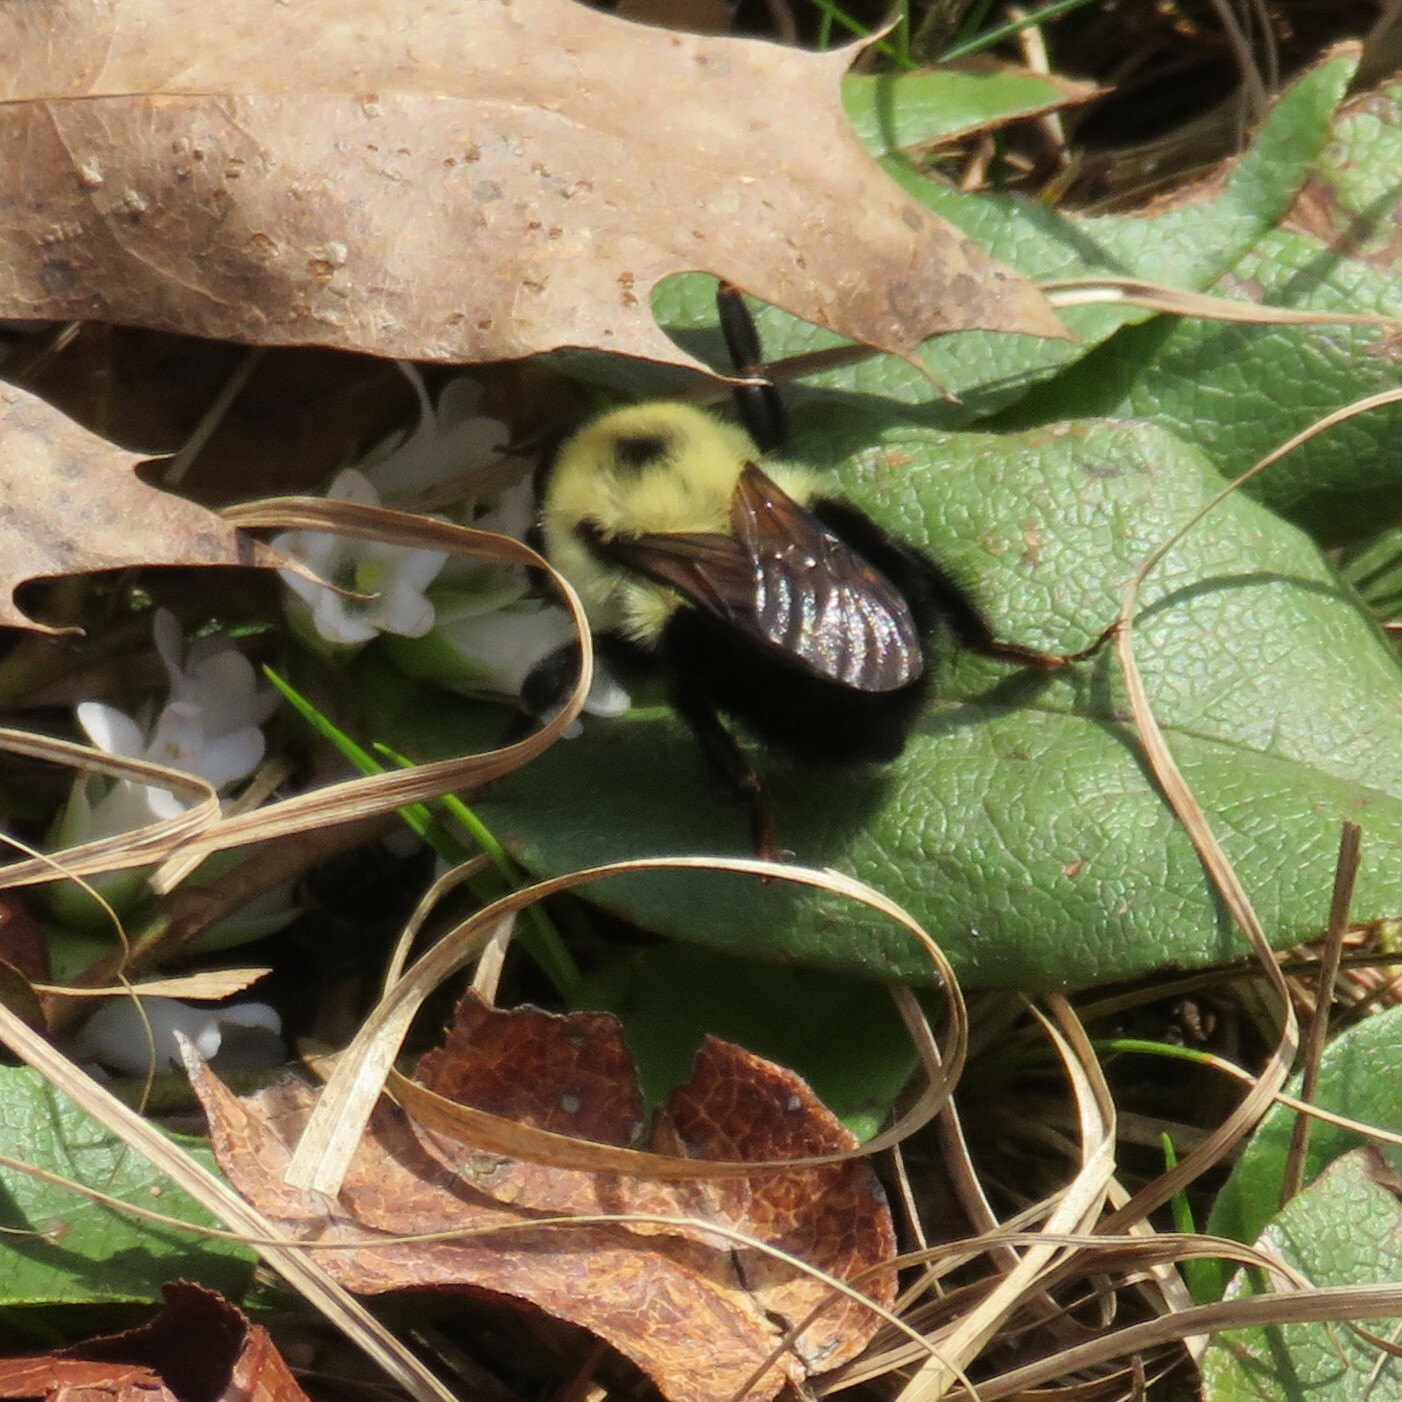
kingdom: Animalia
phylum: Arthropoda
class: Insecta
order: Hymenoptera
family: Apidae
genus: Bombus
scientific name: Bombus bimaculatus
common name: Two-spotted bumble bee
